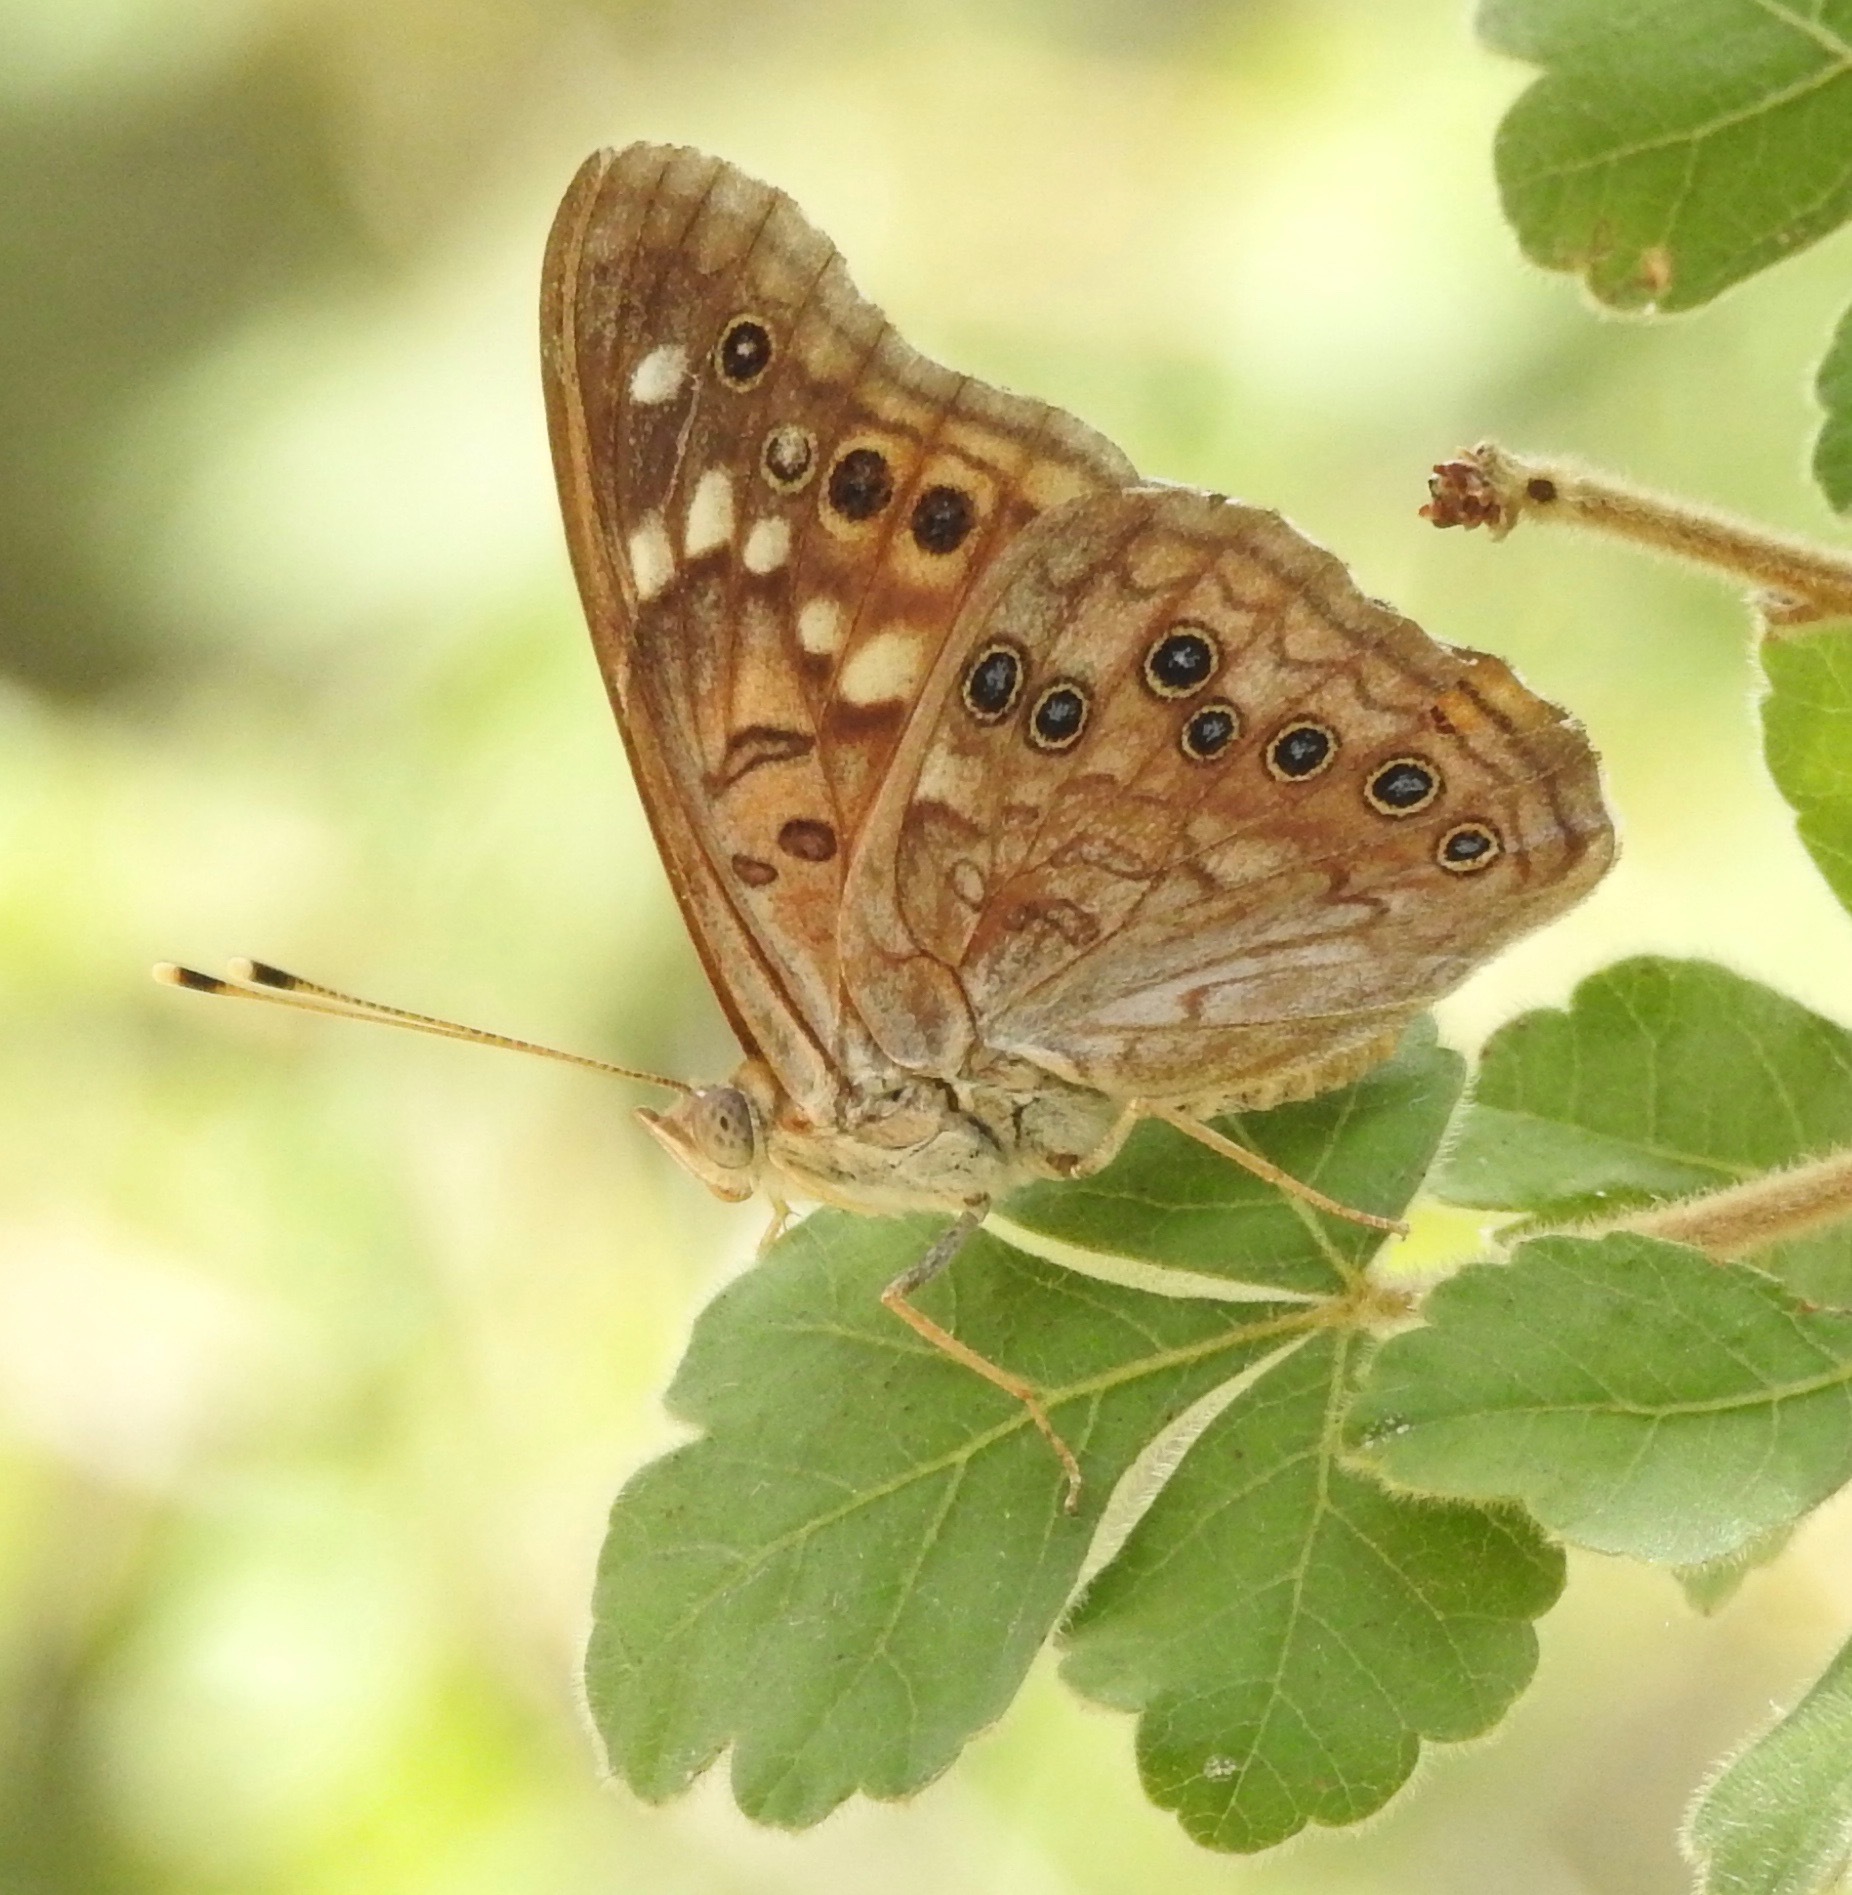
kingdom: Animalia
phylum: Arthropoda
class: Insecta
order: Lepidoptera
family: Nymphalidae
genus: Asterocampa
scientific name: Asterocampa celtis
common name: Hackberry emperor
